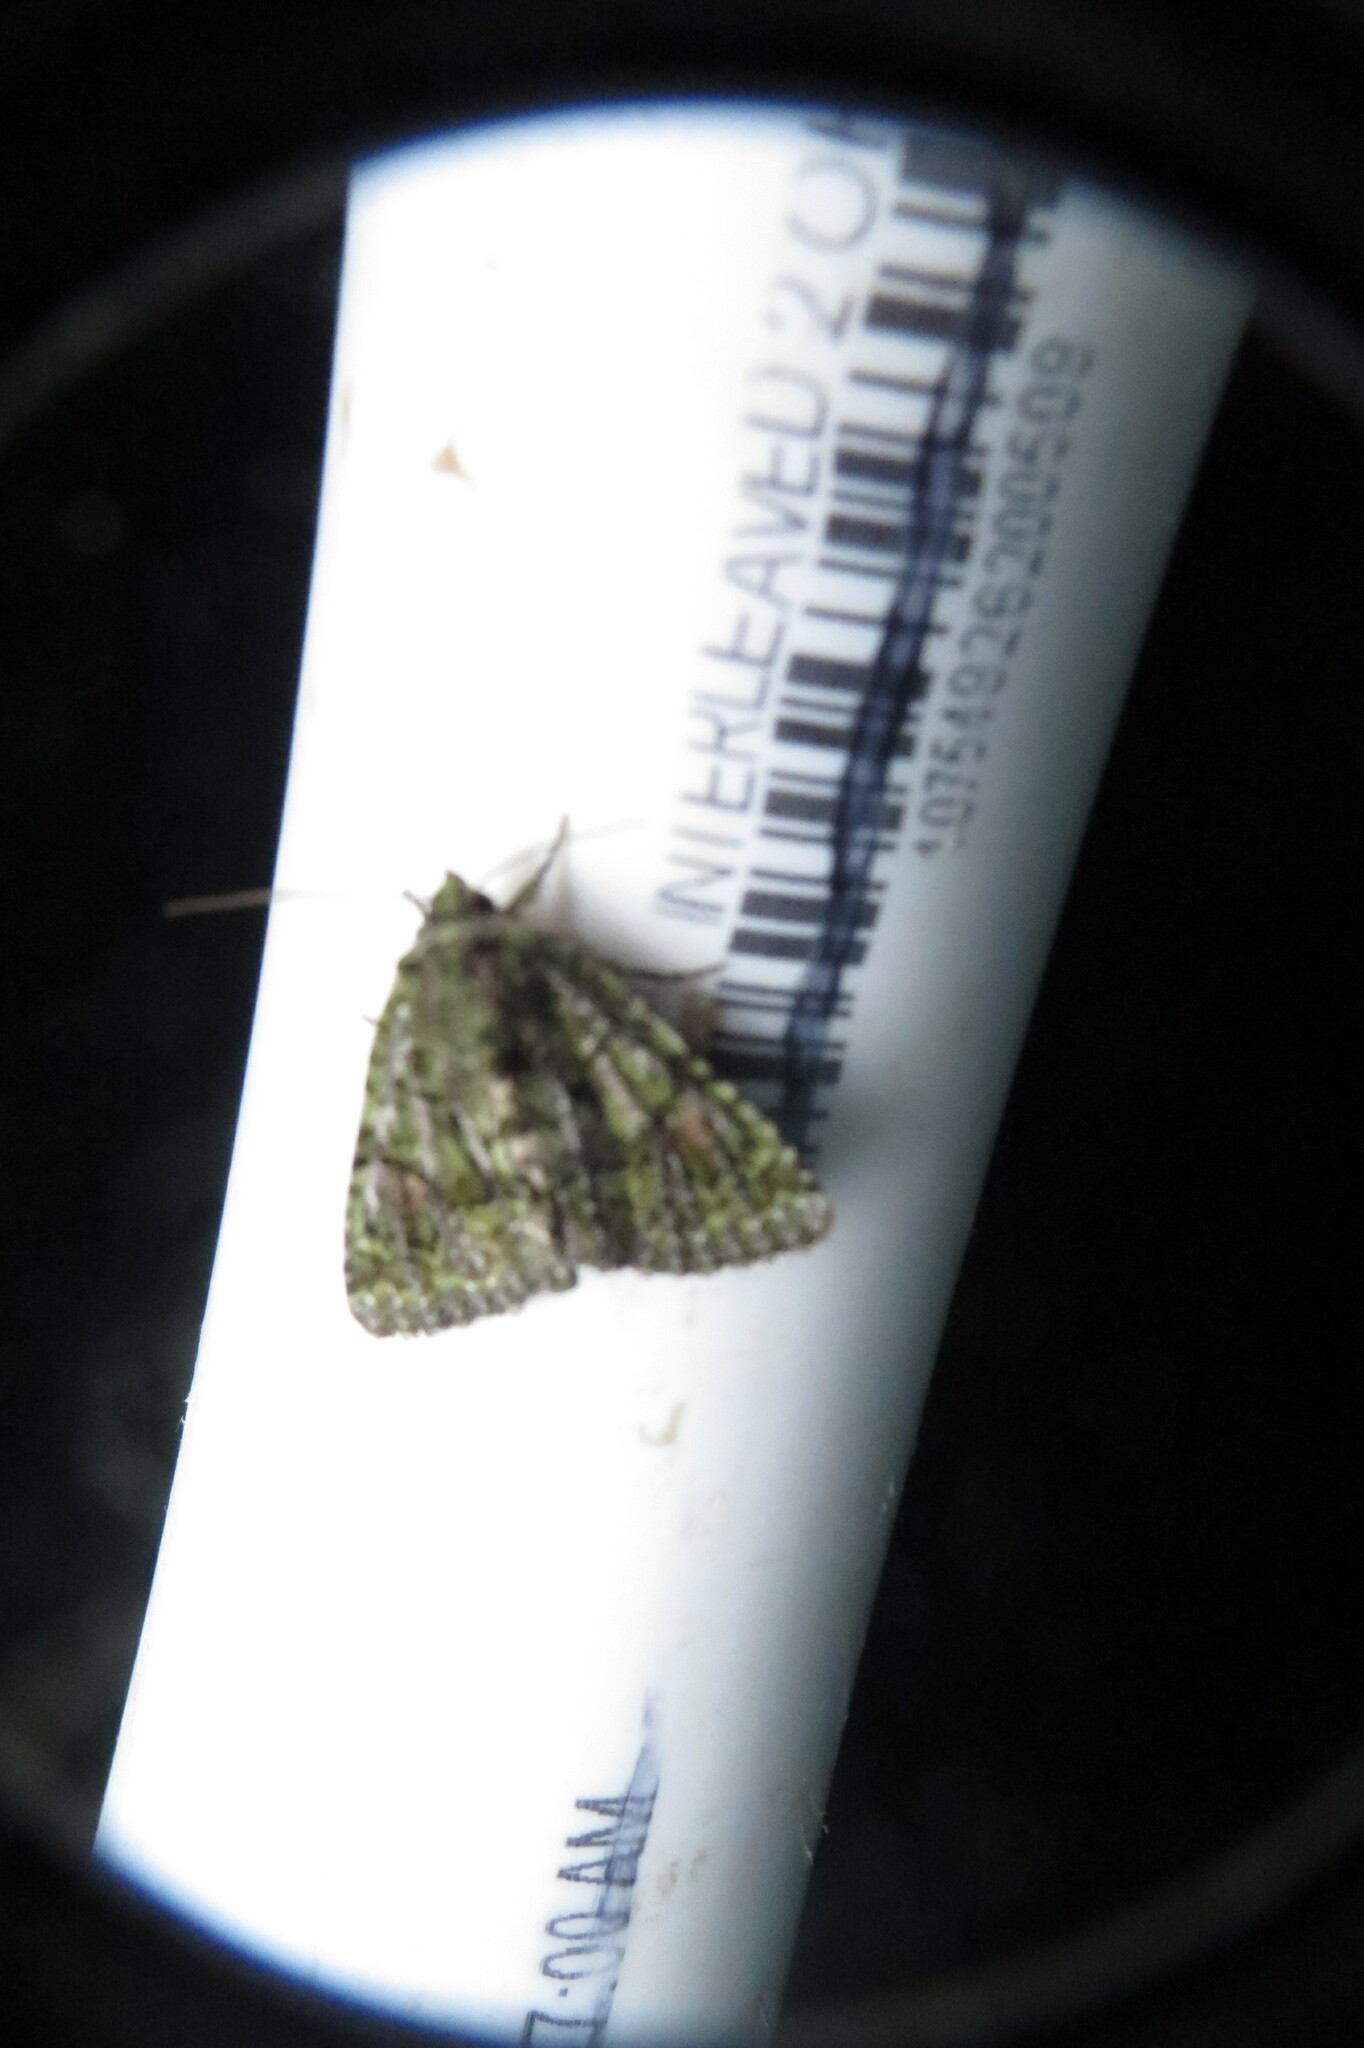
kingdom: Animalia
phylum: Arthropoda
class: Insecta
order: Lepidoptera
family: Noctuidae
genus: Phosphila
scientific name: Phosphila miselioides
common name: Spotted phosphila moth
